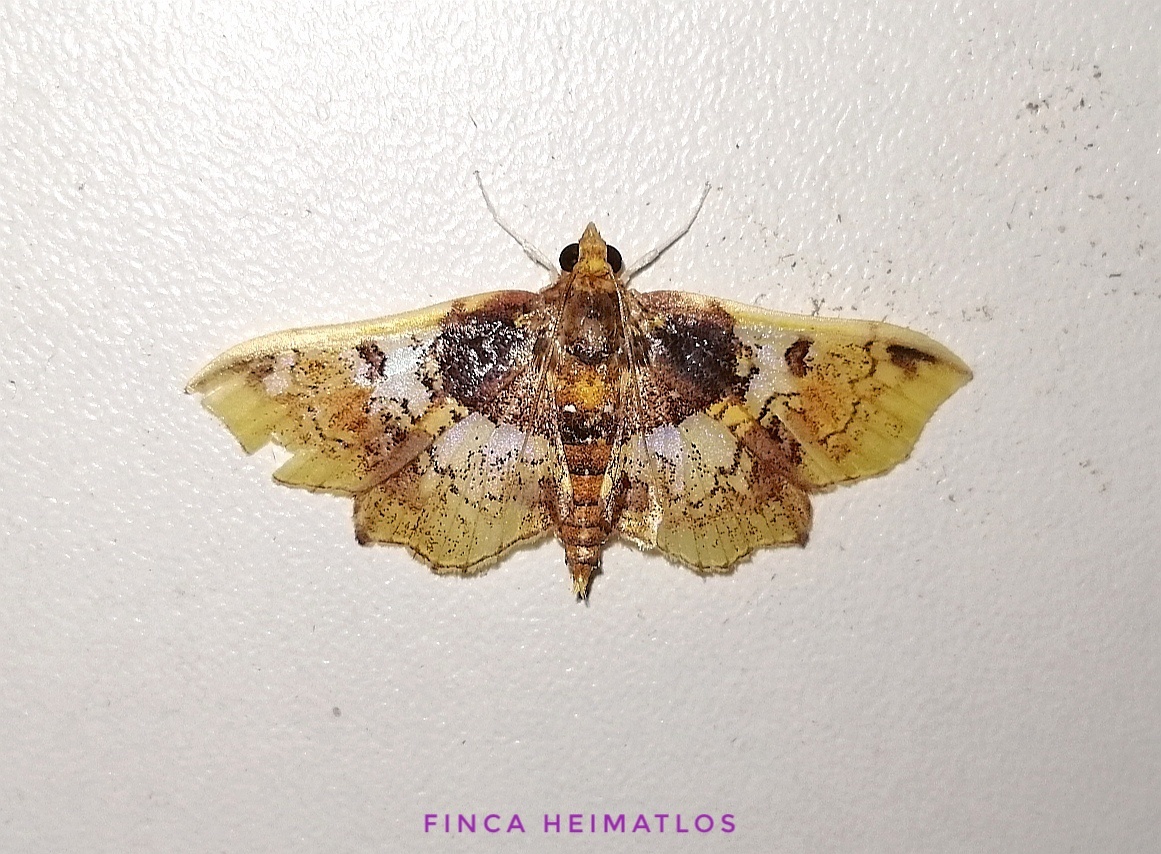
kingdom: Animalia
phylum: Arthropoda
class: Insecta
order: Lepidoptera
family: Crambidae
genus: Megastes
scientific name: Megastes erythrostolalis
